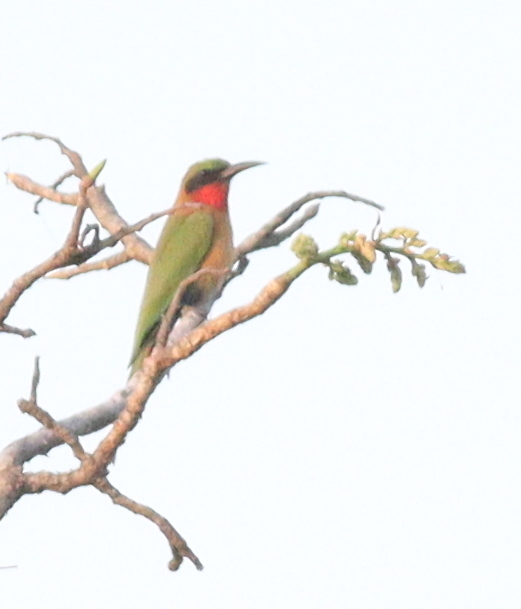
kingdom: Animalia
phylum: Chordata
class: Aves
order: Coraciiformes
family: Meropidae
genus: Merops
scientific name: Merops bulocki
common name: Red-throated bee-eater
